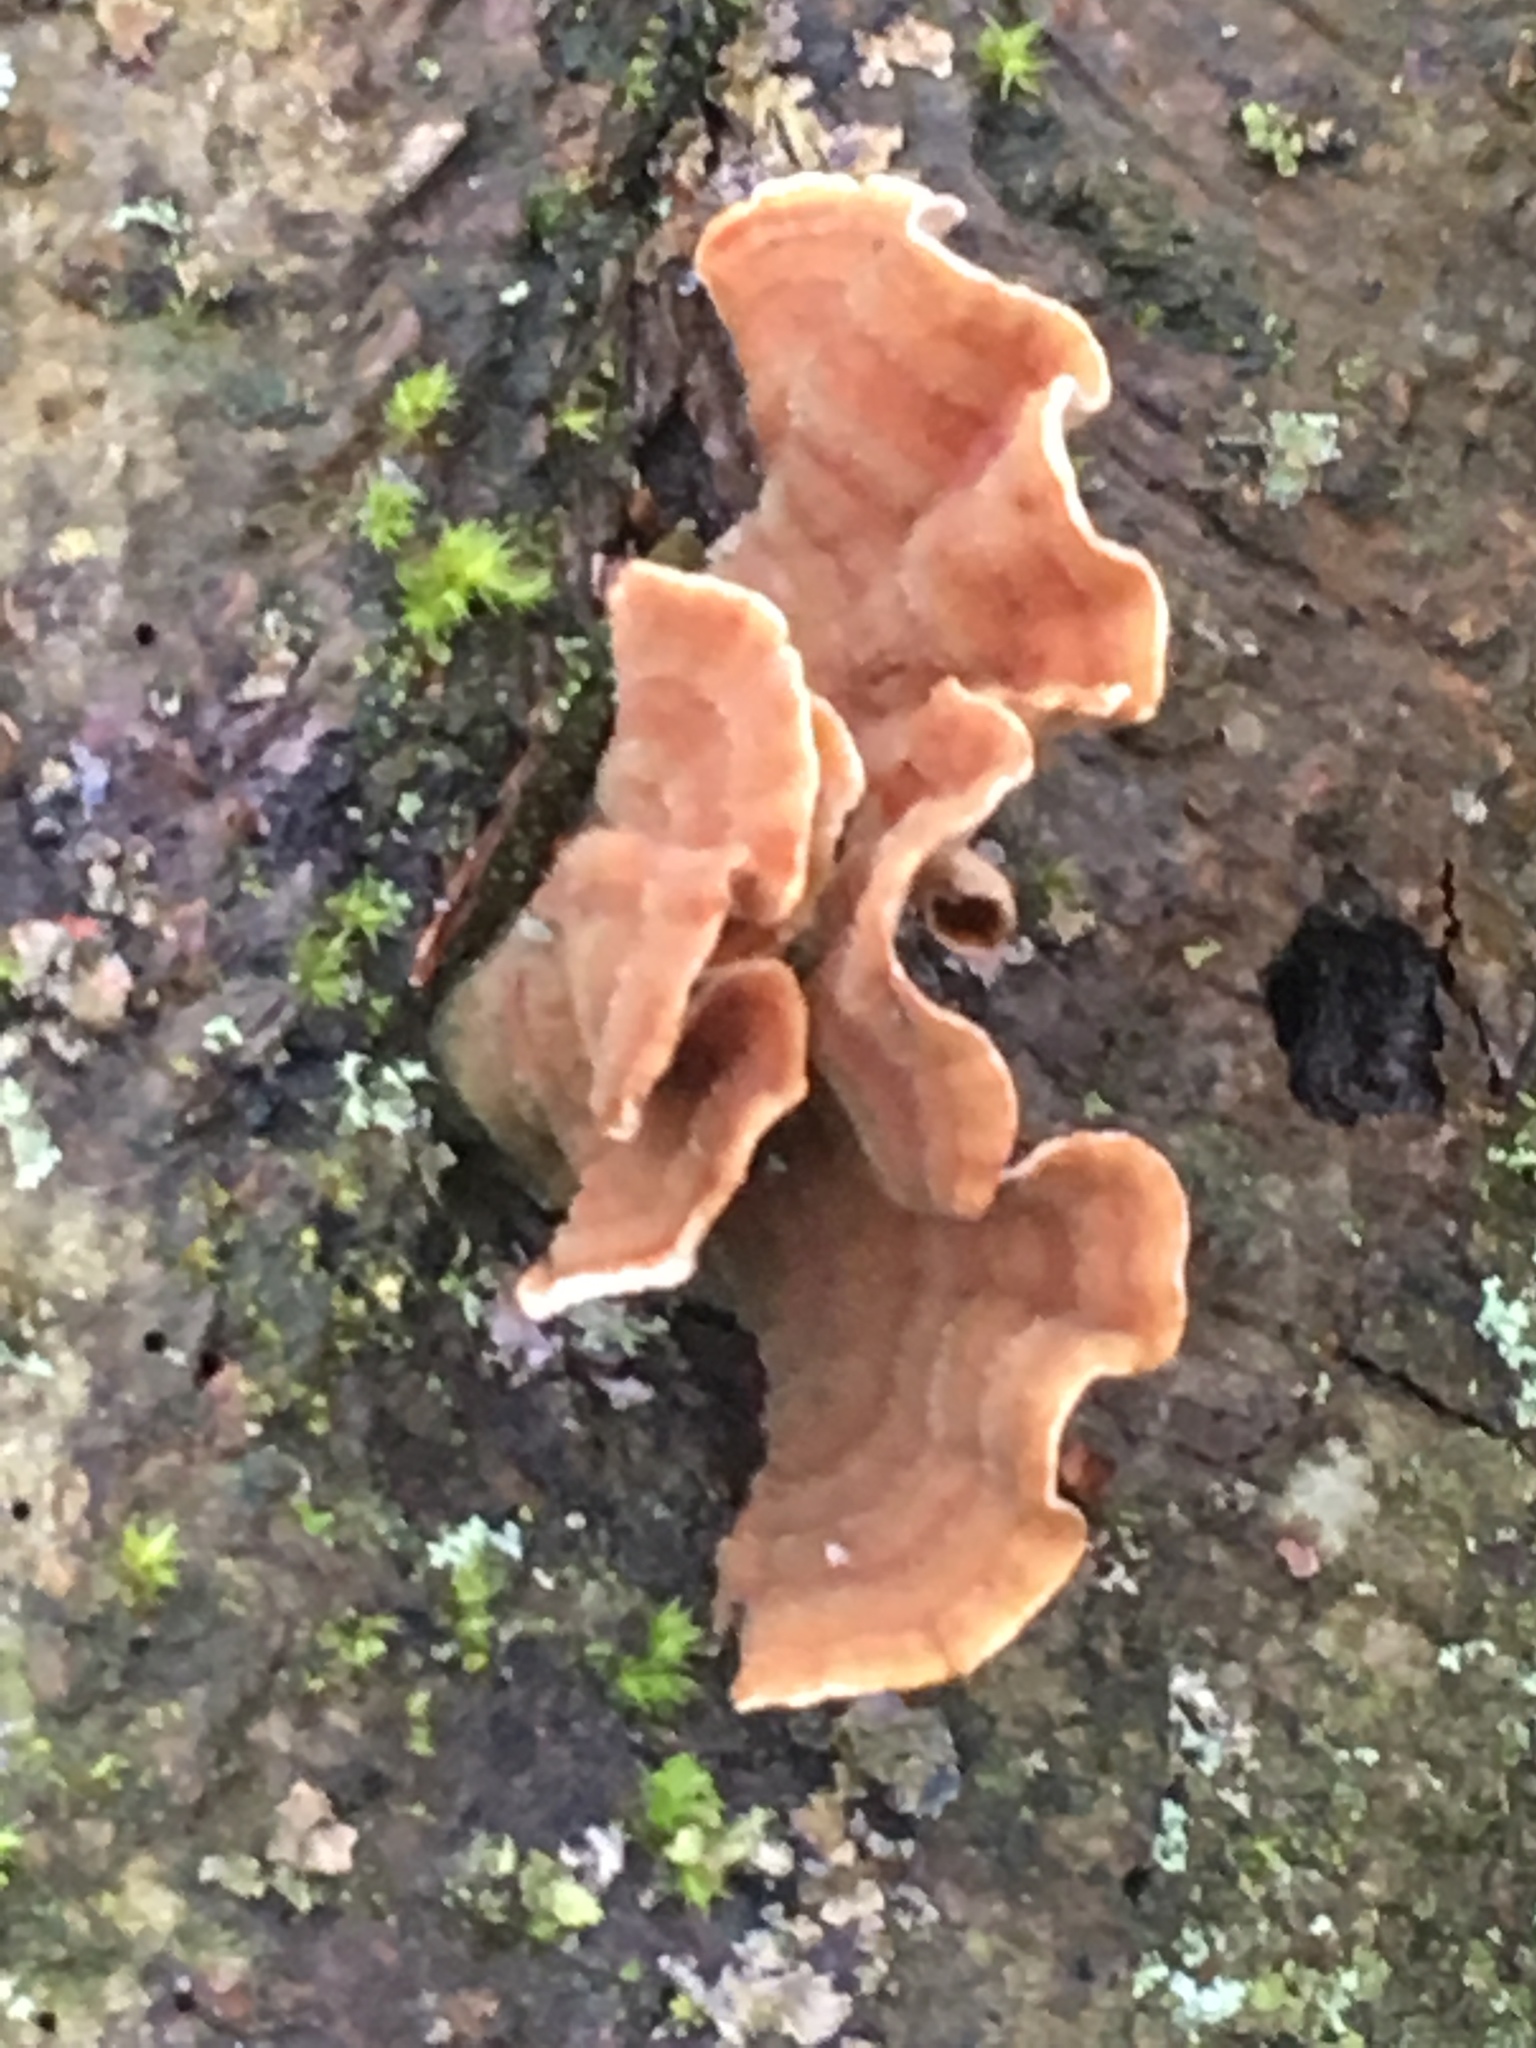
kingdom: Fungi
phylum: Basidiomycota
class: Agaricomycetes
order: Russulales
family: Stereaceae
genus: Stereum
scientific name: Stereum subtomentosum
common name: Yellowing curtain crust
